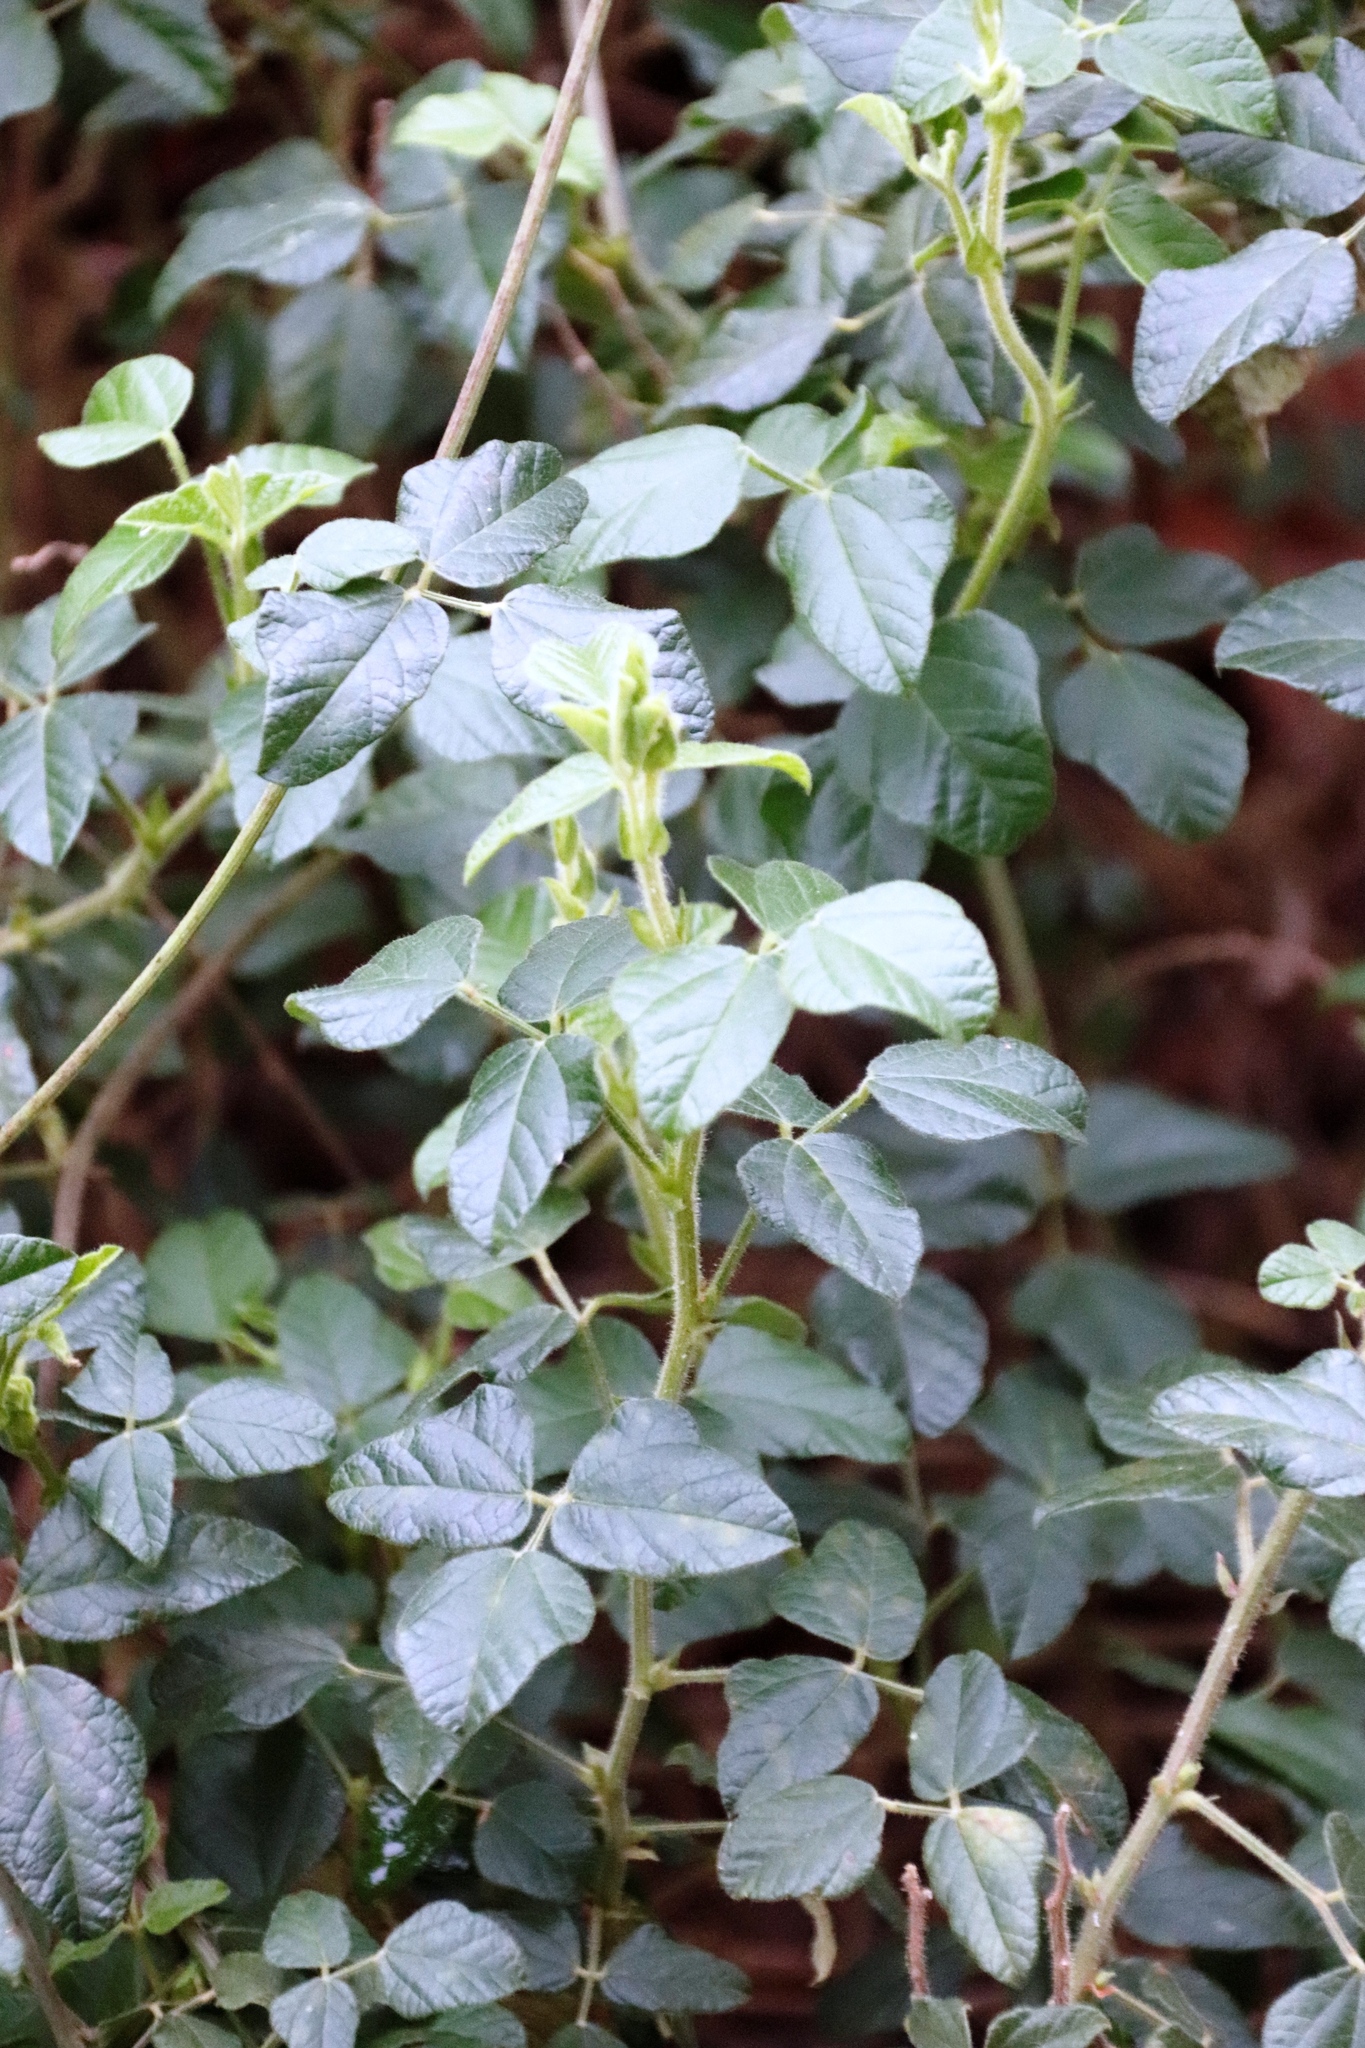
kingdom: Plantae
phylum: Tracheophyta
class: Magnoliopsida
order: Fabales
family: Fabaceae
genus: Bolusafra
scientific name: Bolusafra bituminosa
